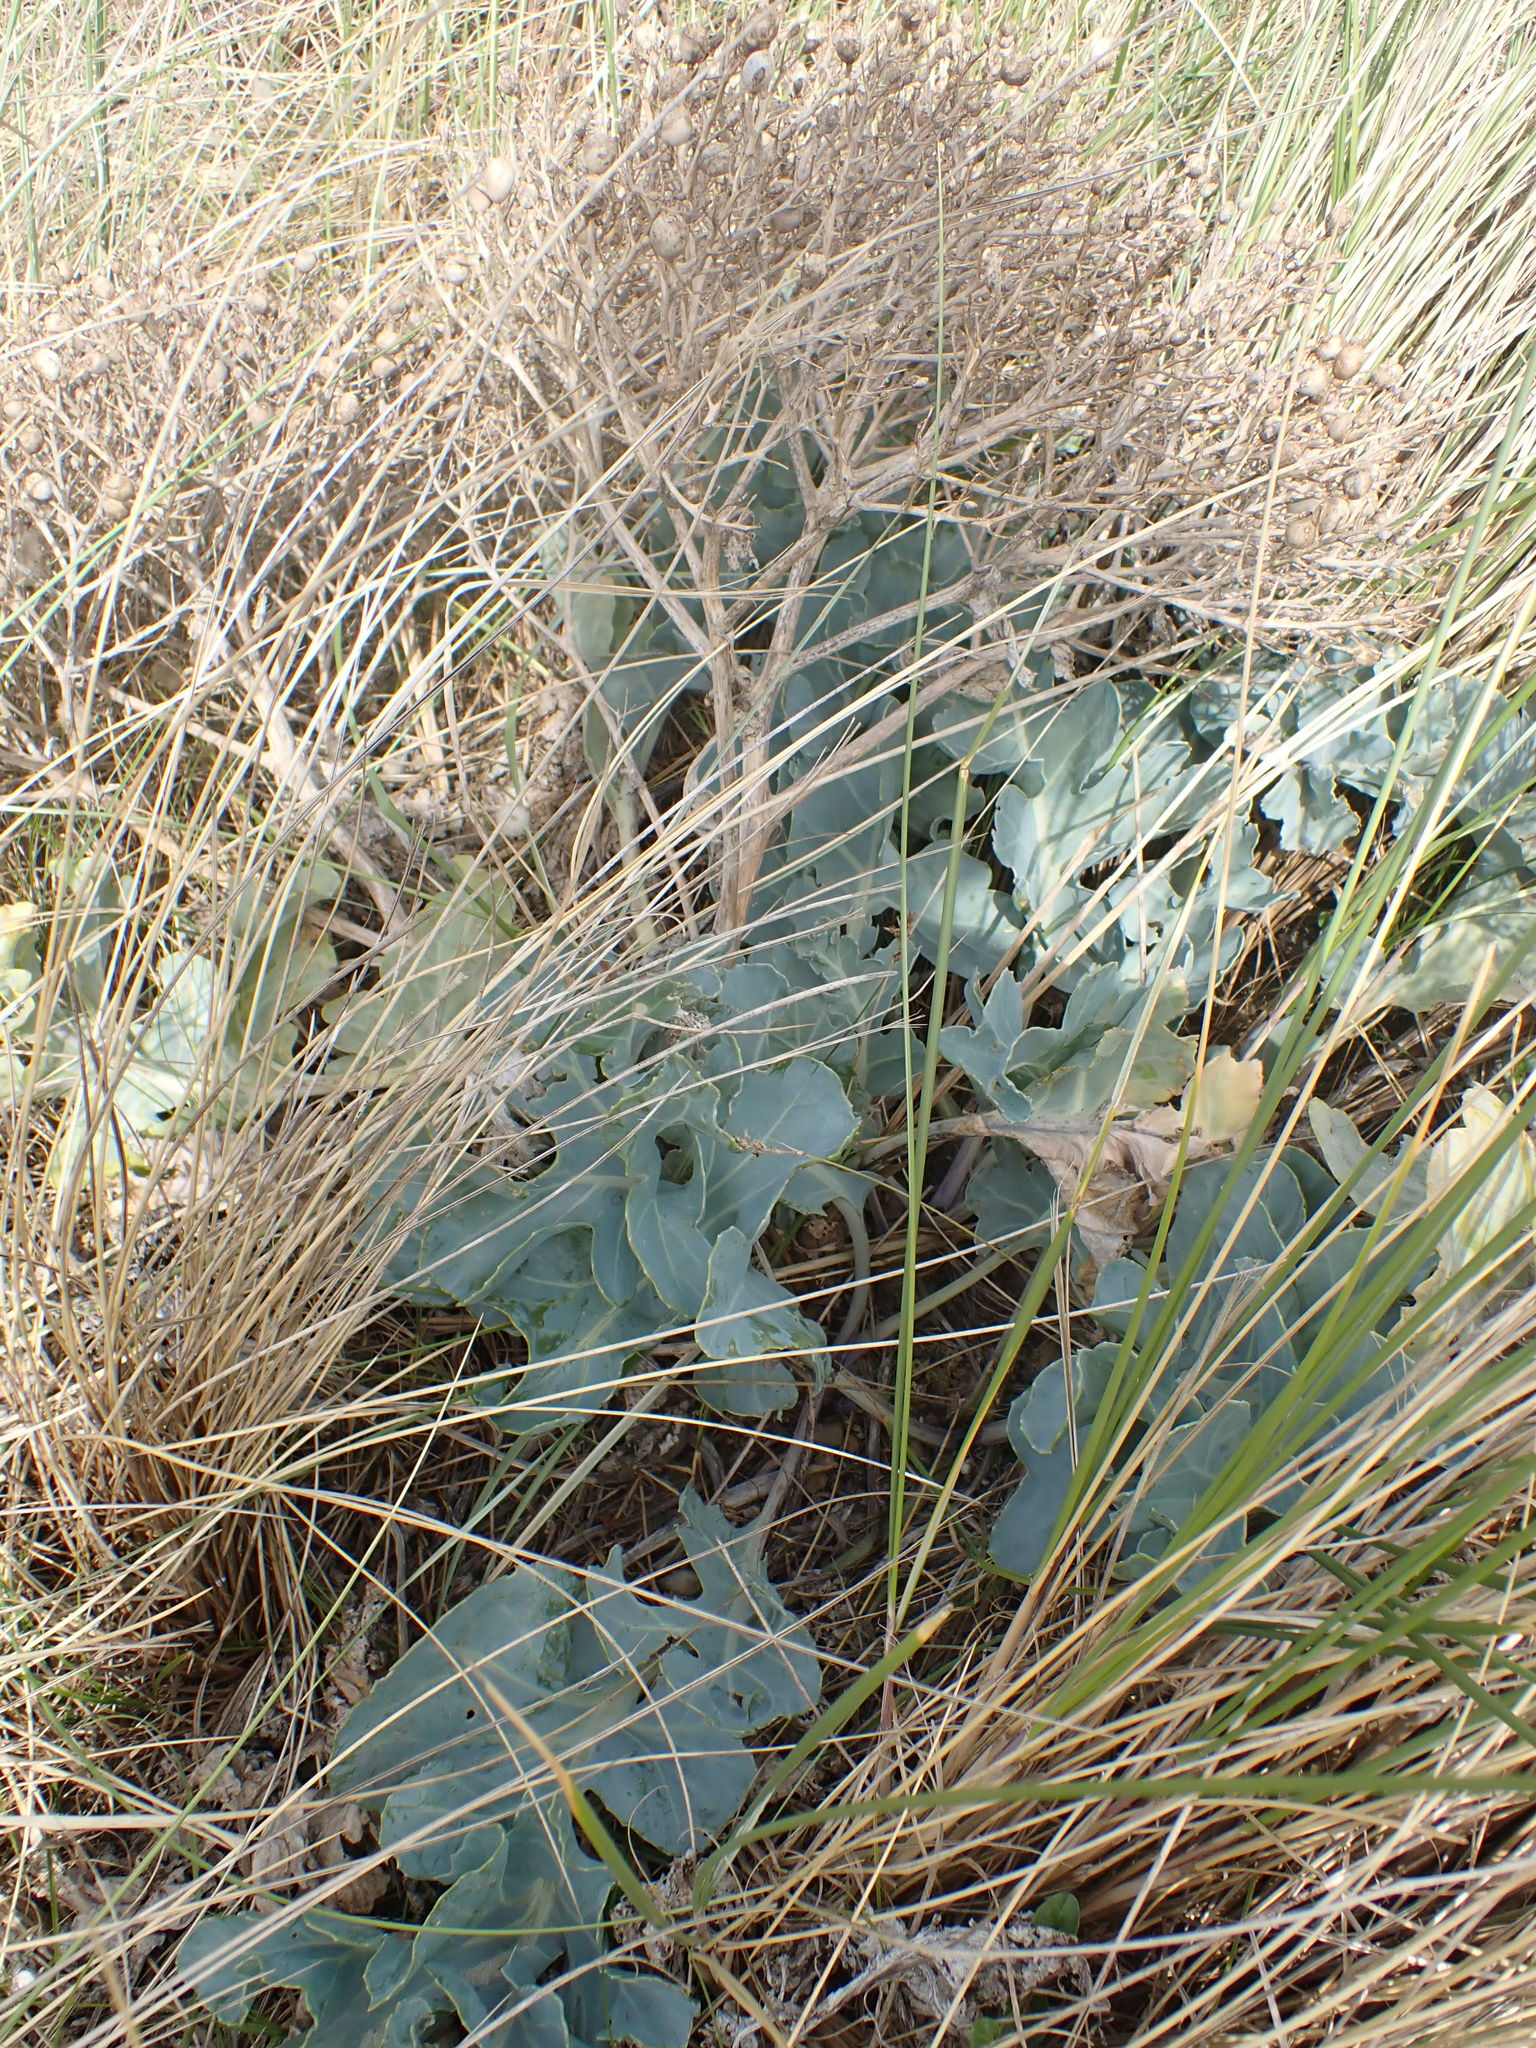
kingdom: Plantae
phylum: Tracheophyta
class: Magnoliopsida
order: Brassicales
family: Brassicaceae
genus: Crambe
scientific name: Crambe maritima
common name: Sea-kale
